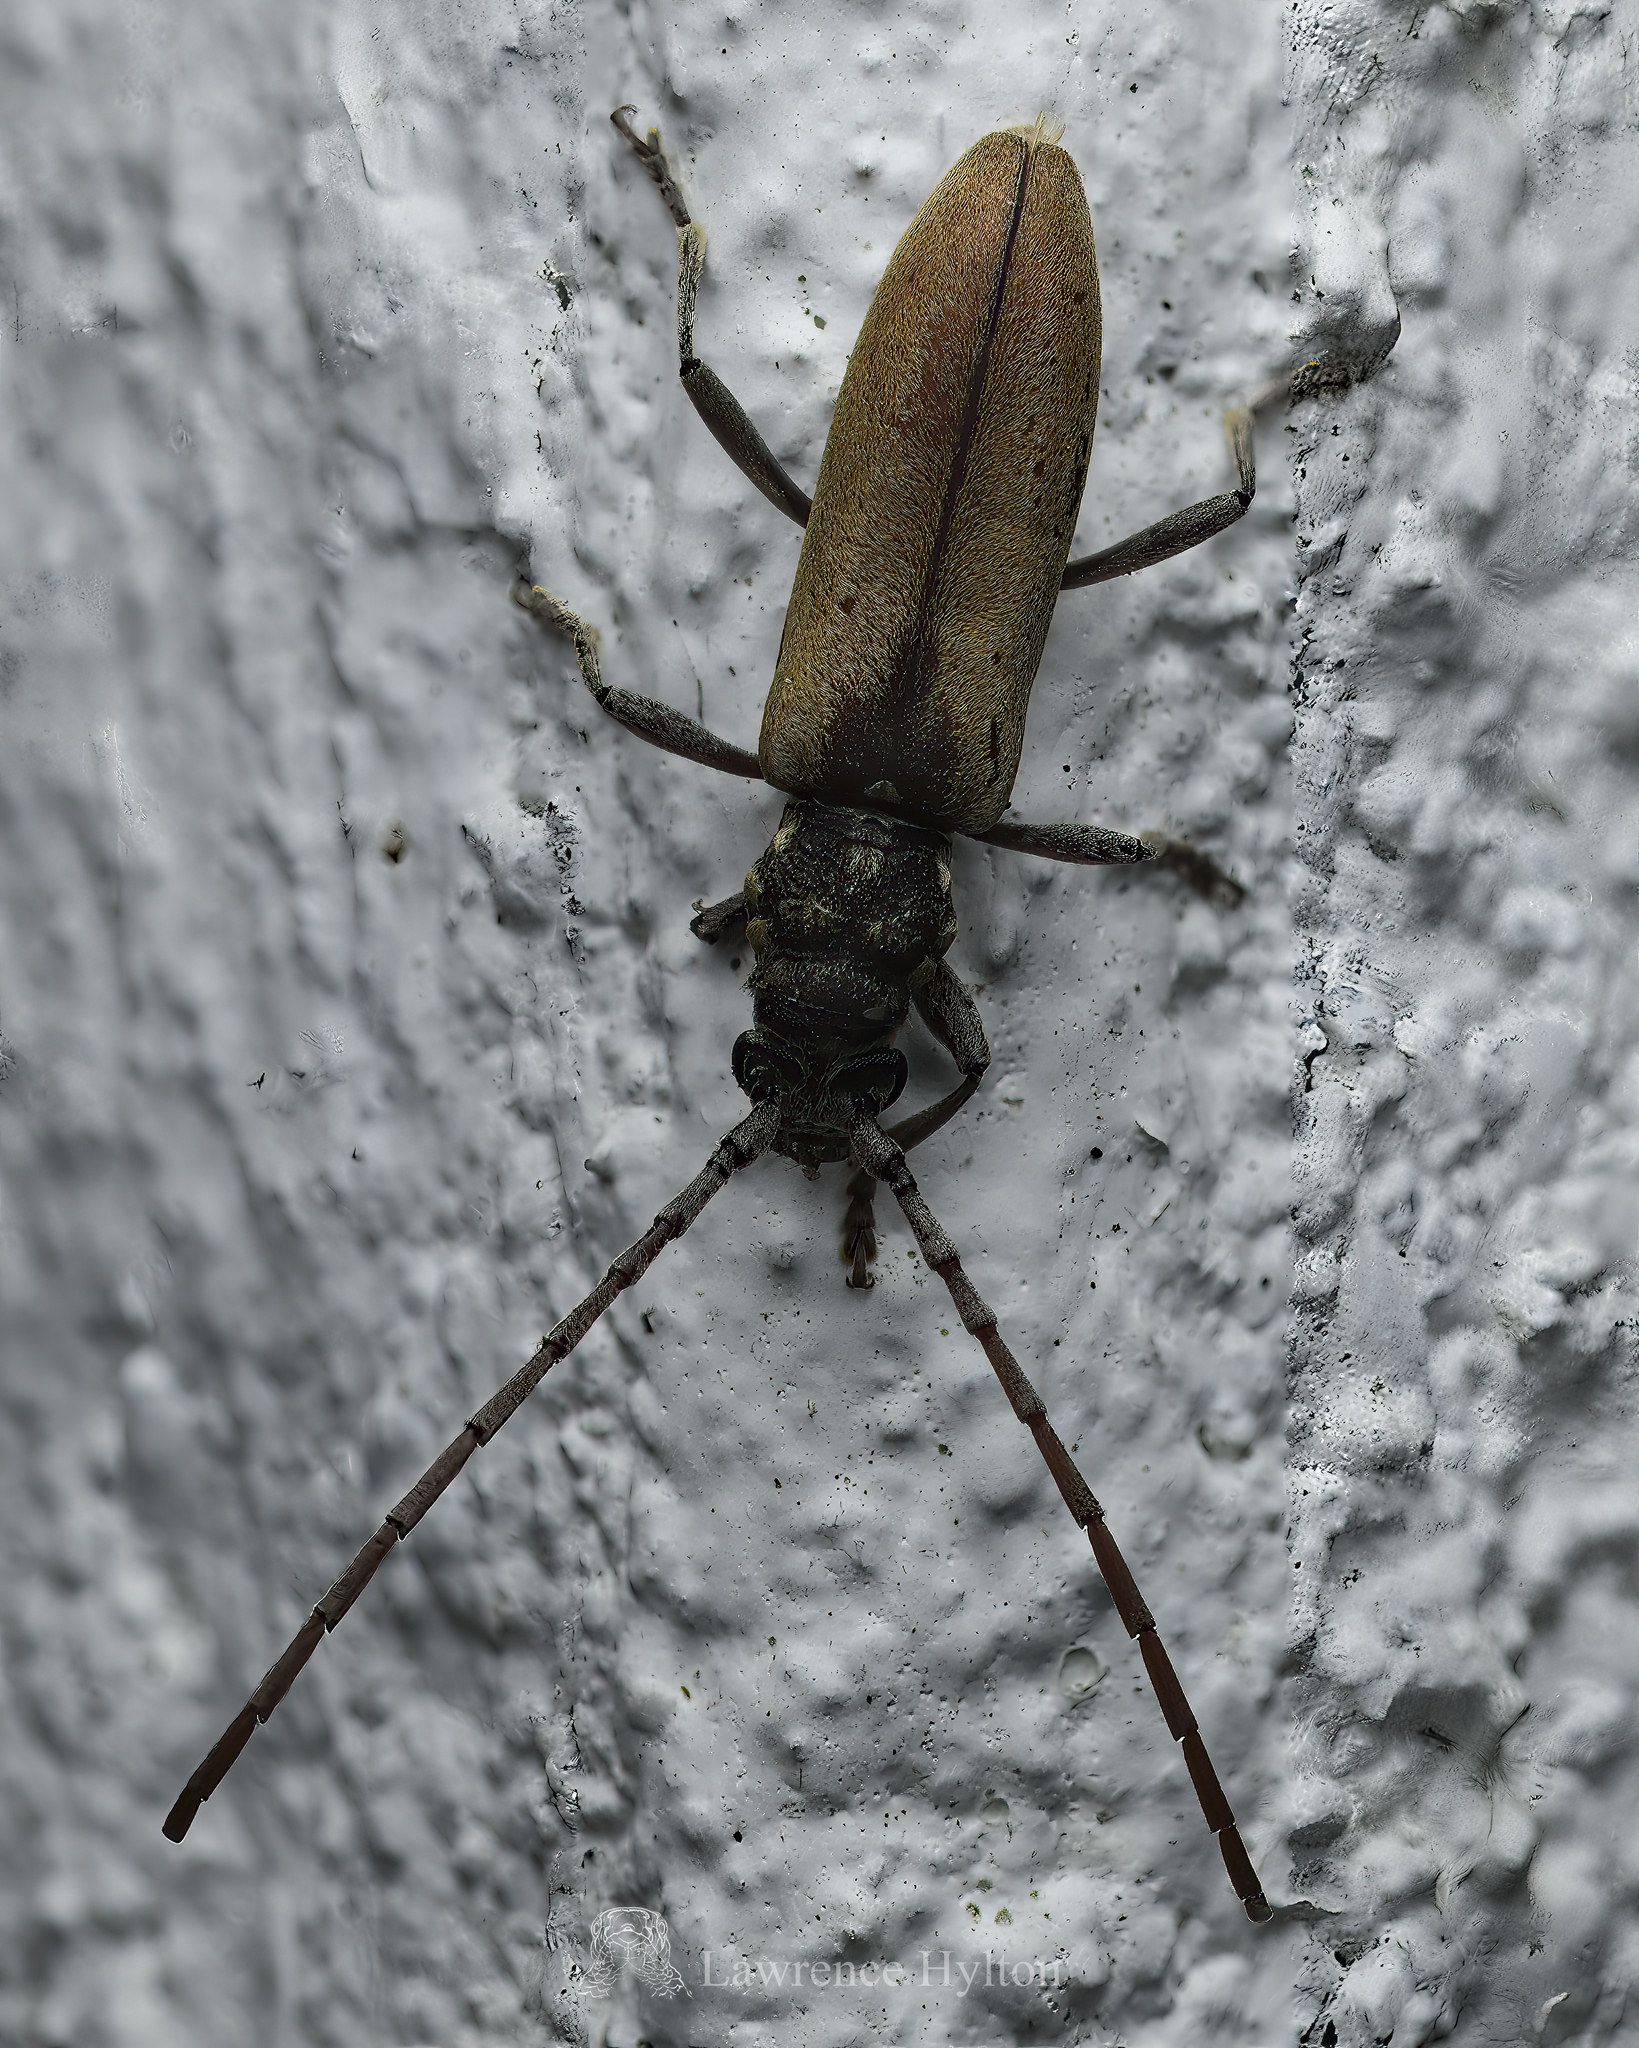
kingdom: Animalia
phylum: Arthropoda
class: Insecta
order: Coleoptera
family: Cerambycidae
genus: Margites
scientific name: Margites fulvidus
